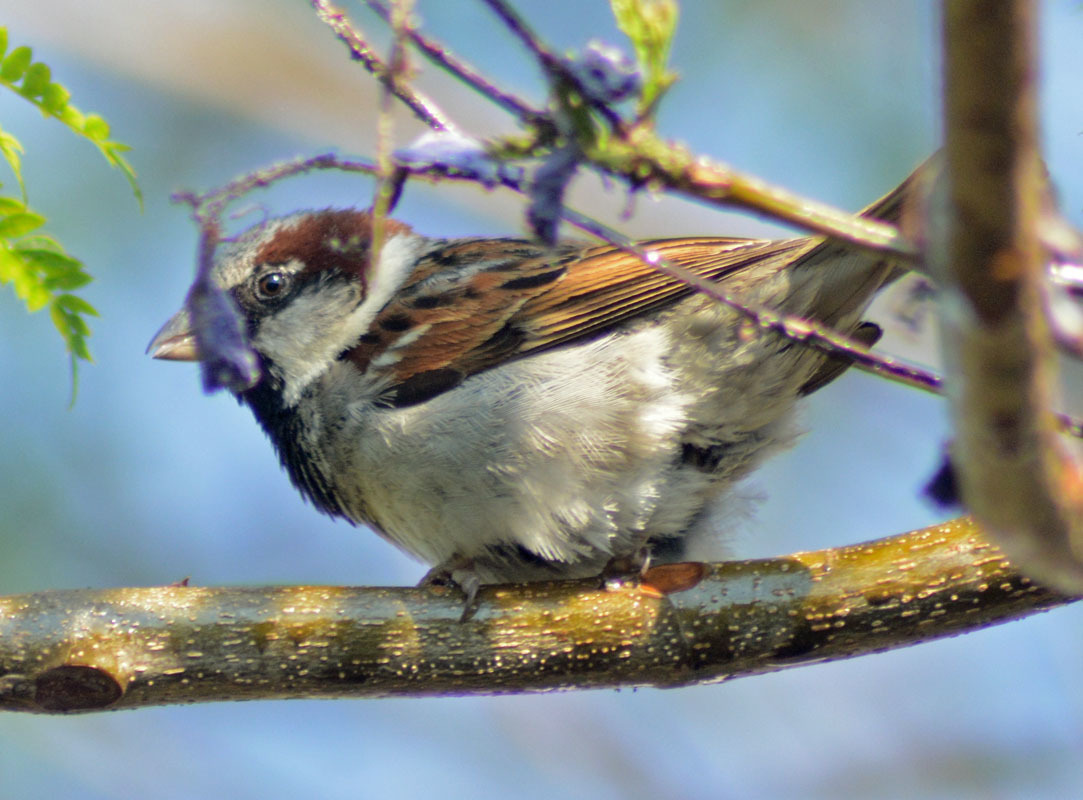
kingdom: Animalia
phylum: Chordata
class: Aves
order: Passeriformes
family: Passeridae
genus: Passer
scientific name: Passer domesticus
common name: House sparrow
